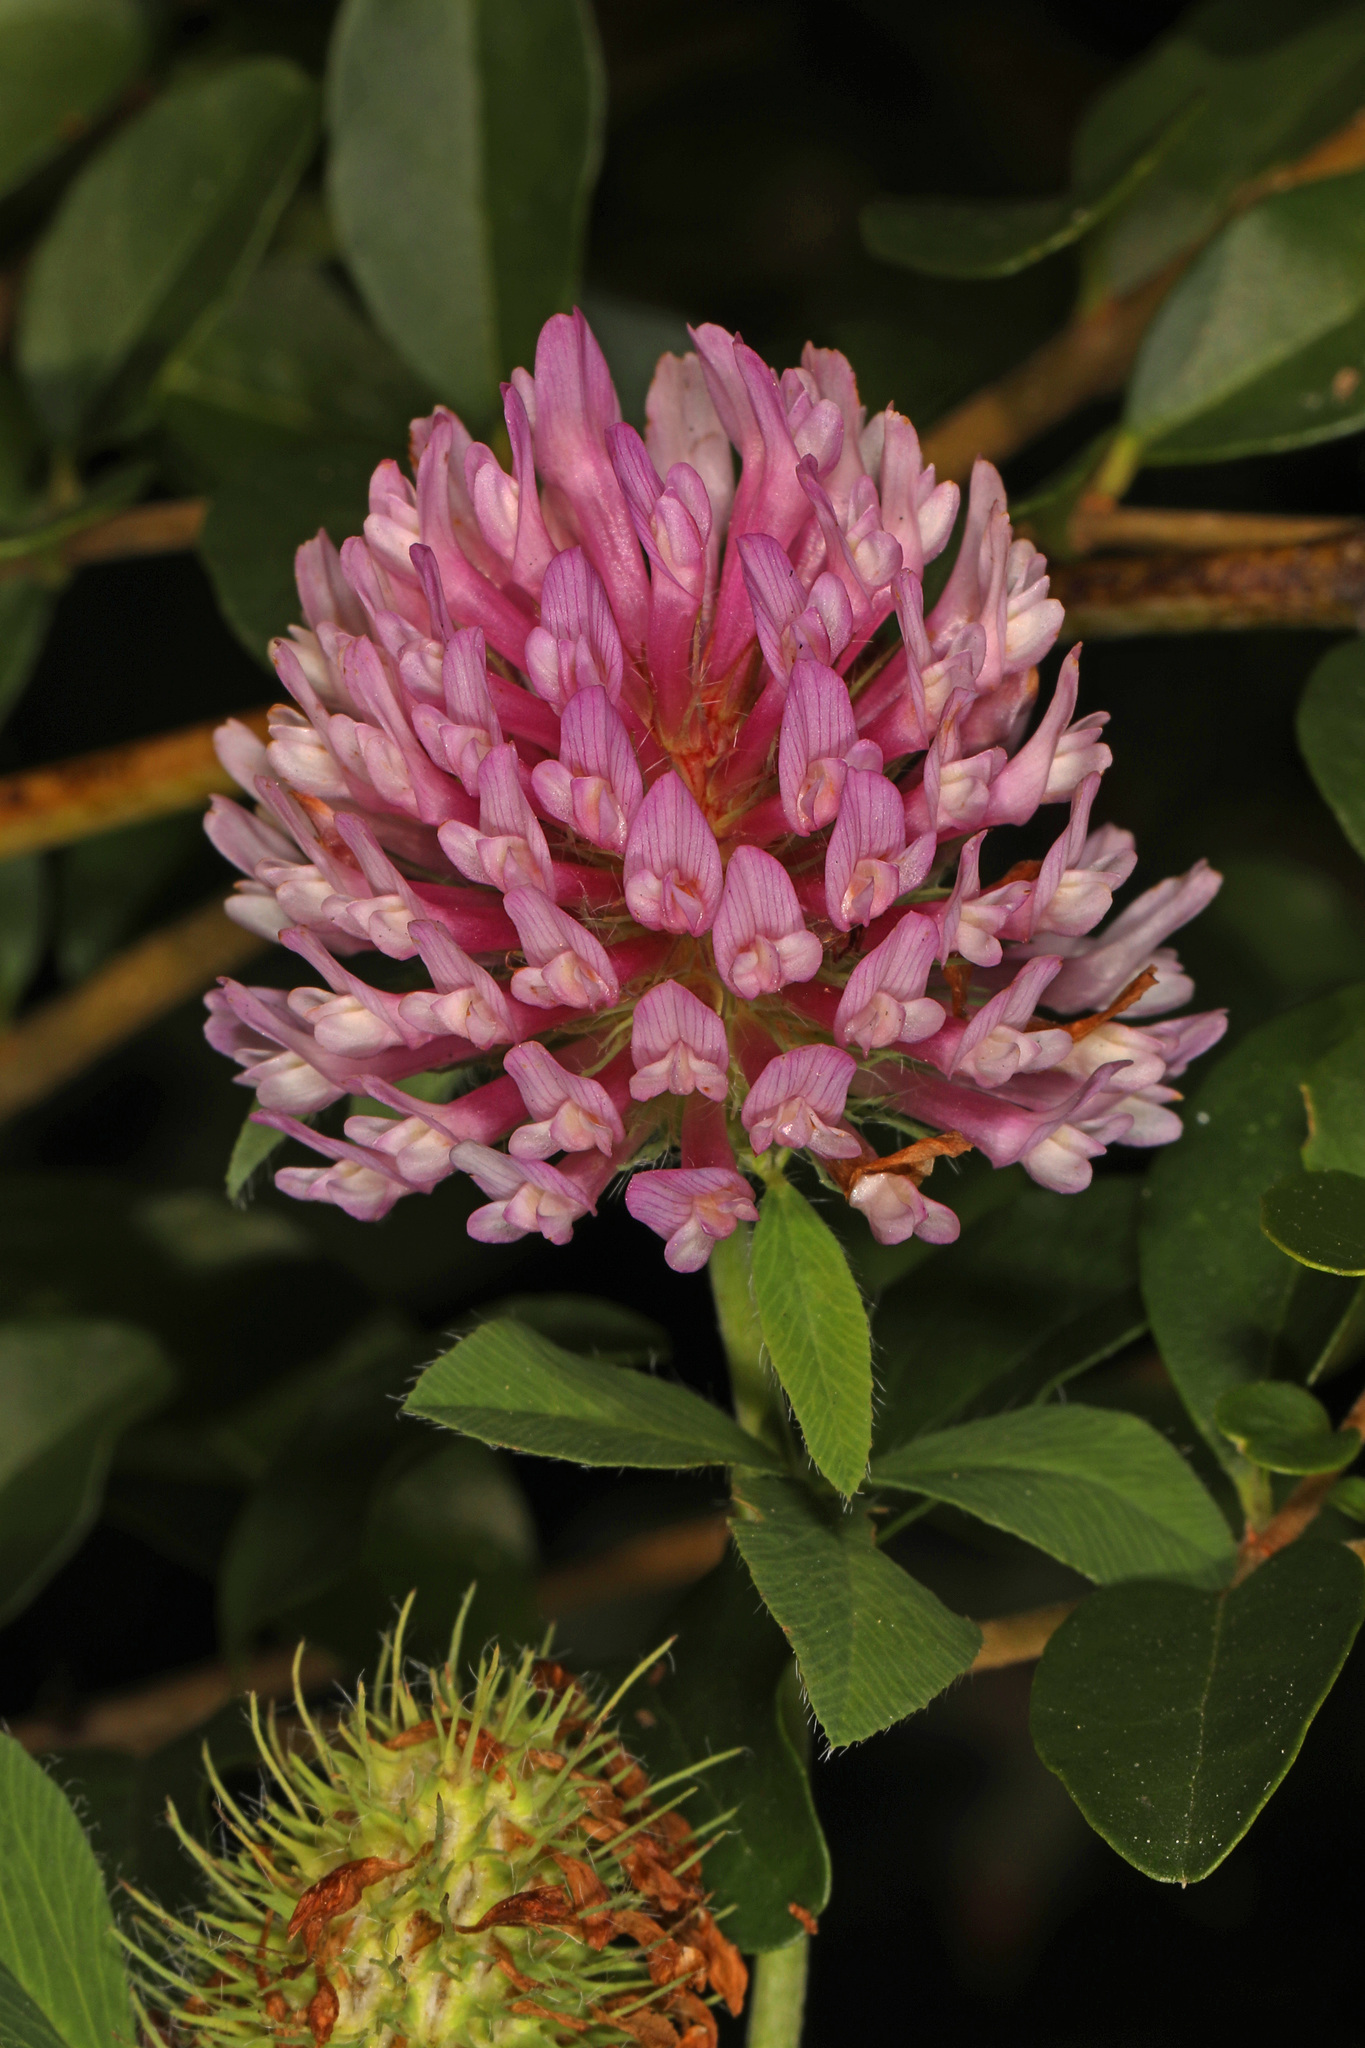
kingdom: Plantae
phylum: Tracheophyta
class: Magnoliopsida
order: Fabales
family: Fabaceae
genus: Trifolium
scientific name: Trifolium pratense
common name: Red clover
